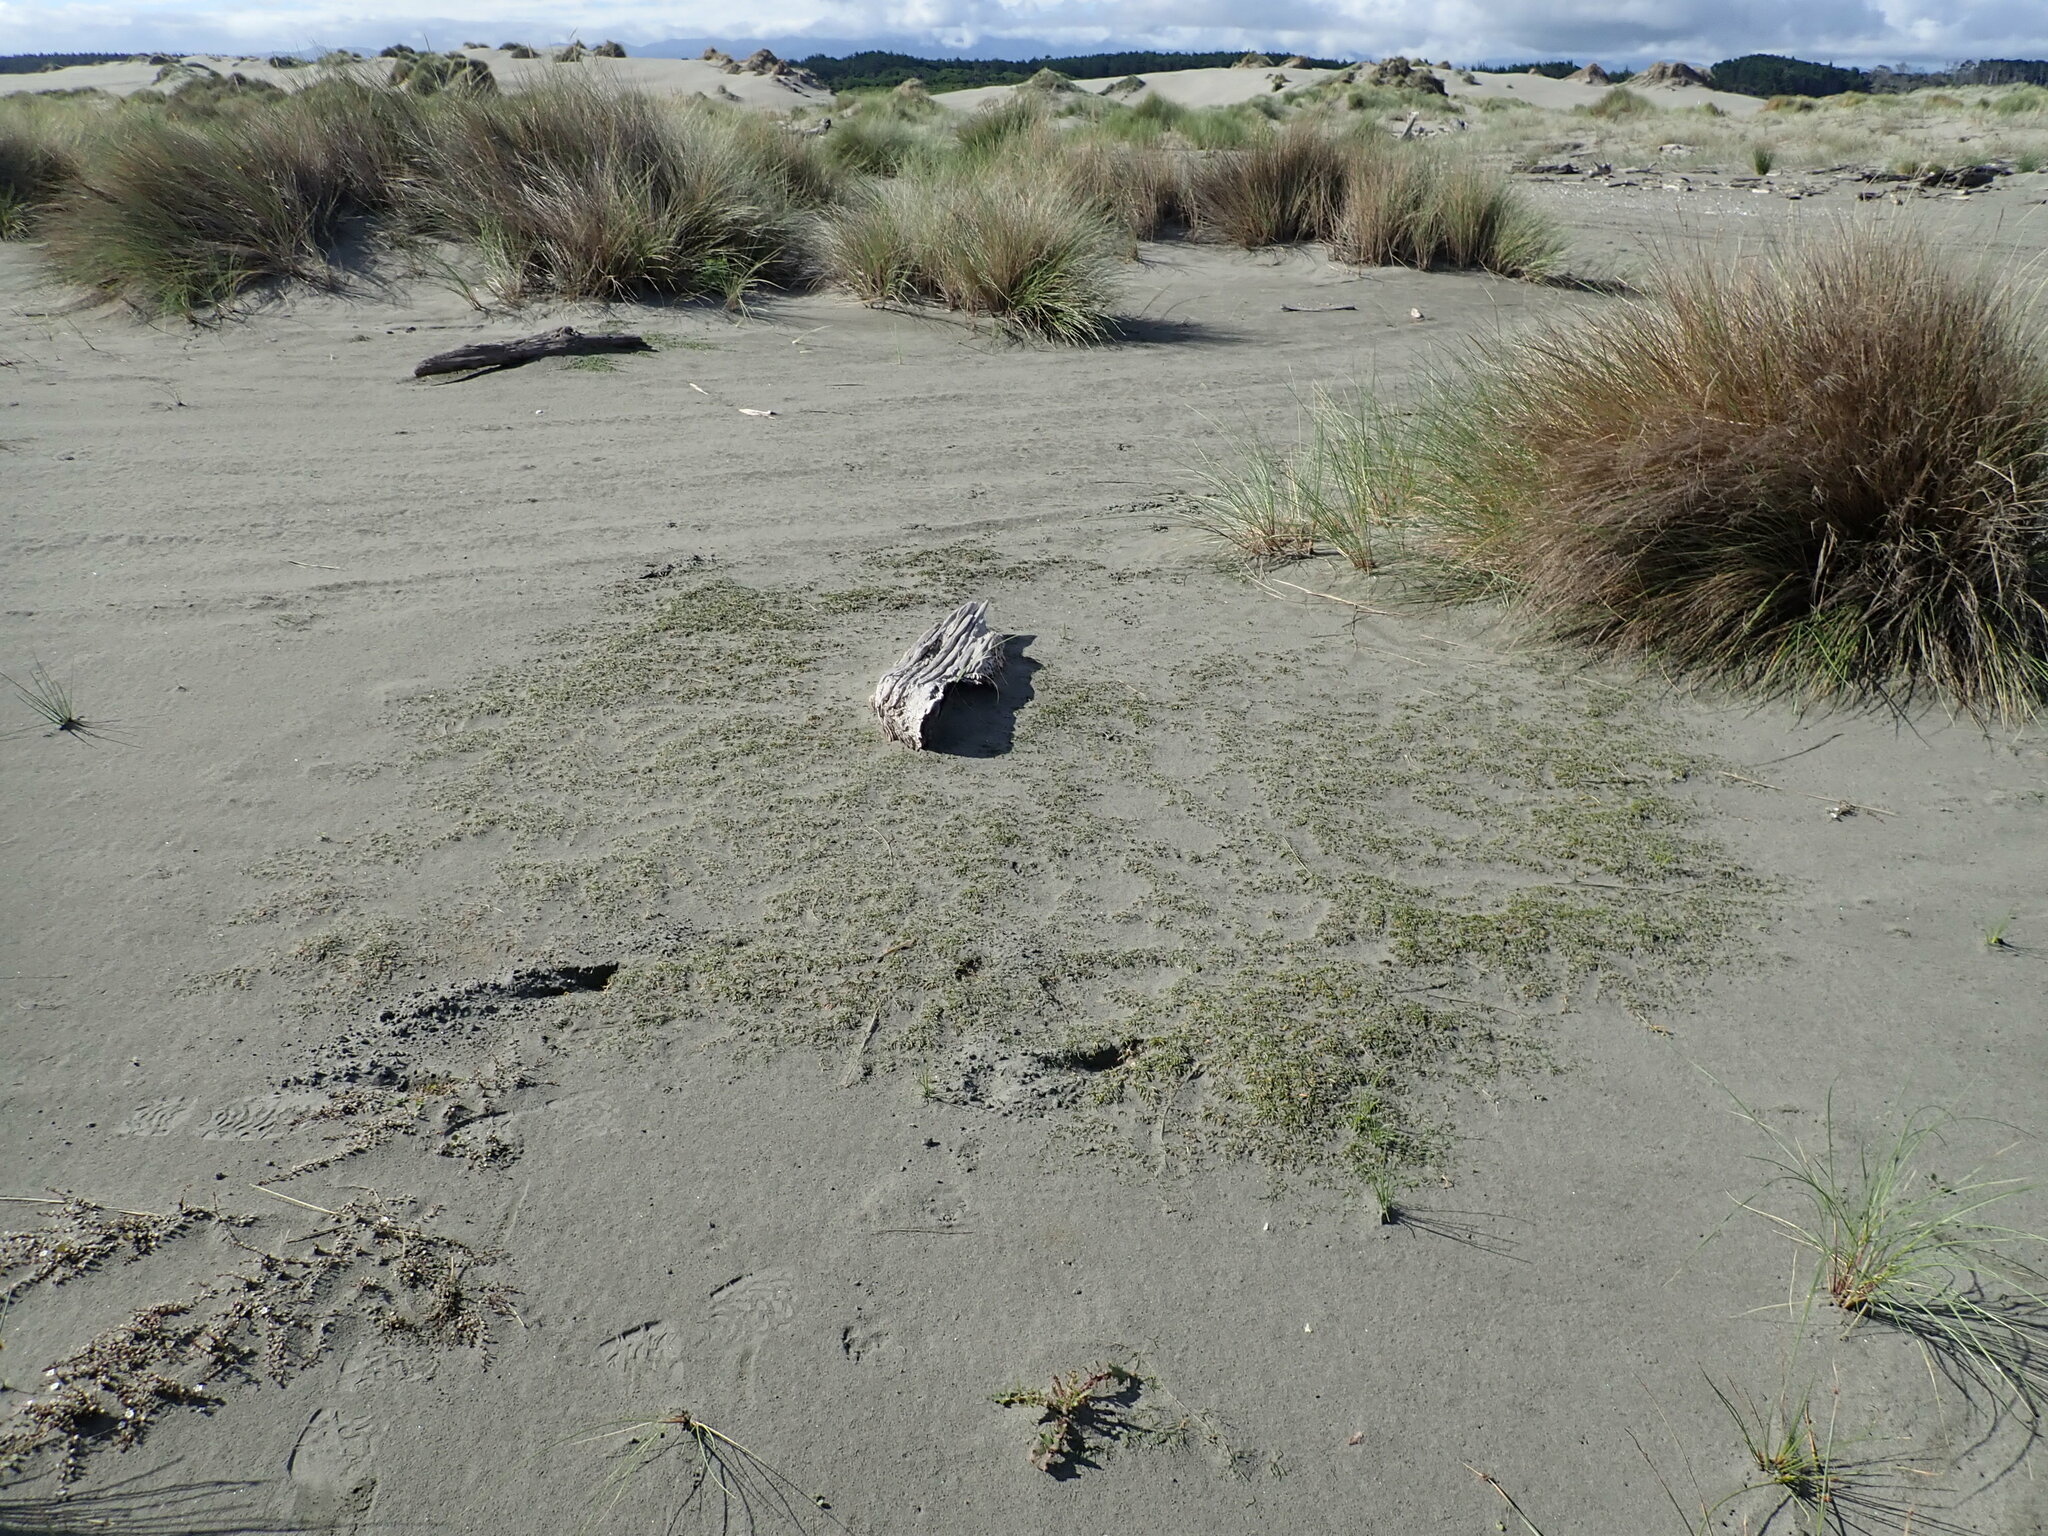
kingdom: Plantae
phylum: Tracheophyta
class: Magnoliopsida
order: Apiales
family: Apiaceae
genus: Lilaeopsis
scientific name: Lilaeopsis novae-zelandiae
